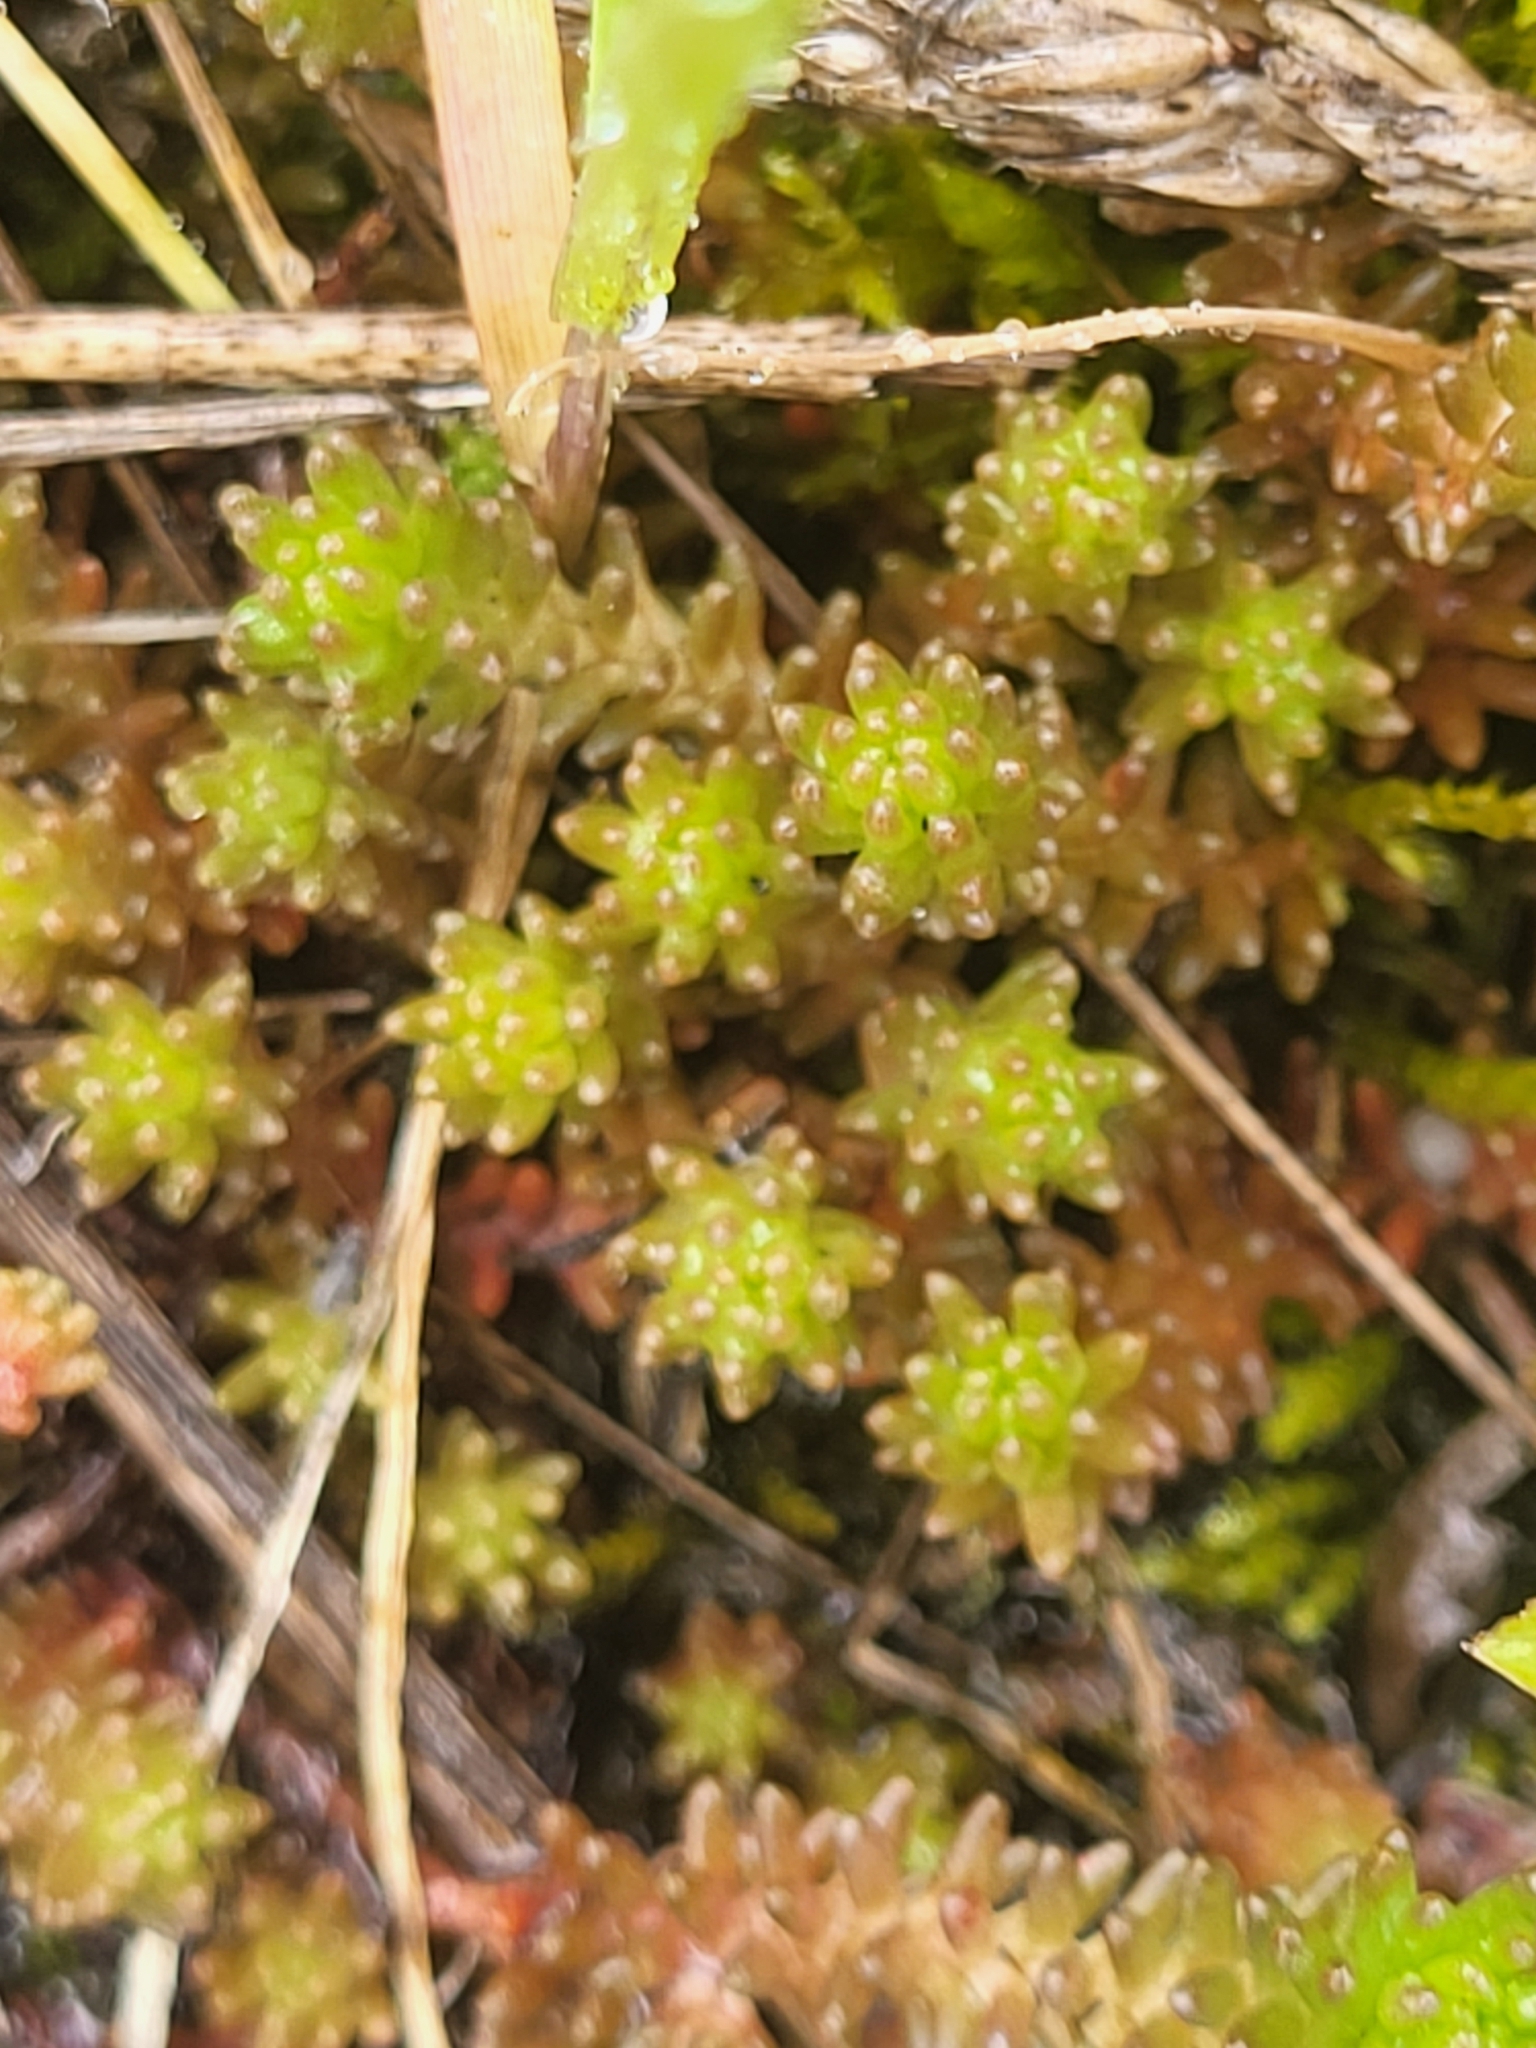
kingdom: Plantae
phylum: Tracheophyta
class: Magnoliopsida
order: Saxifragales
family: Crassulaceae
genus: Sedum
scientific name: Sedum sexangulare
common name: Tasteless stonecrop
